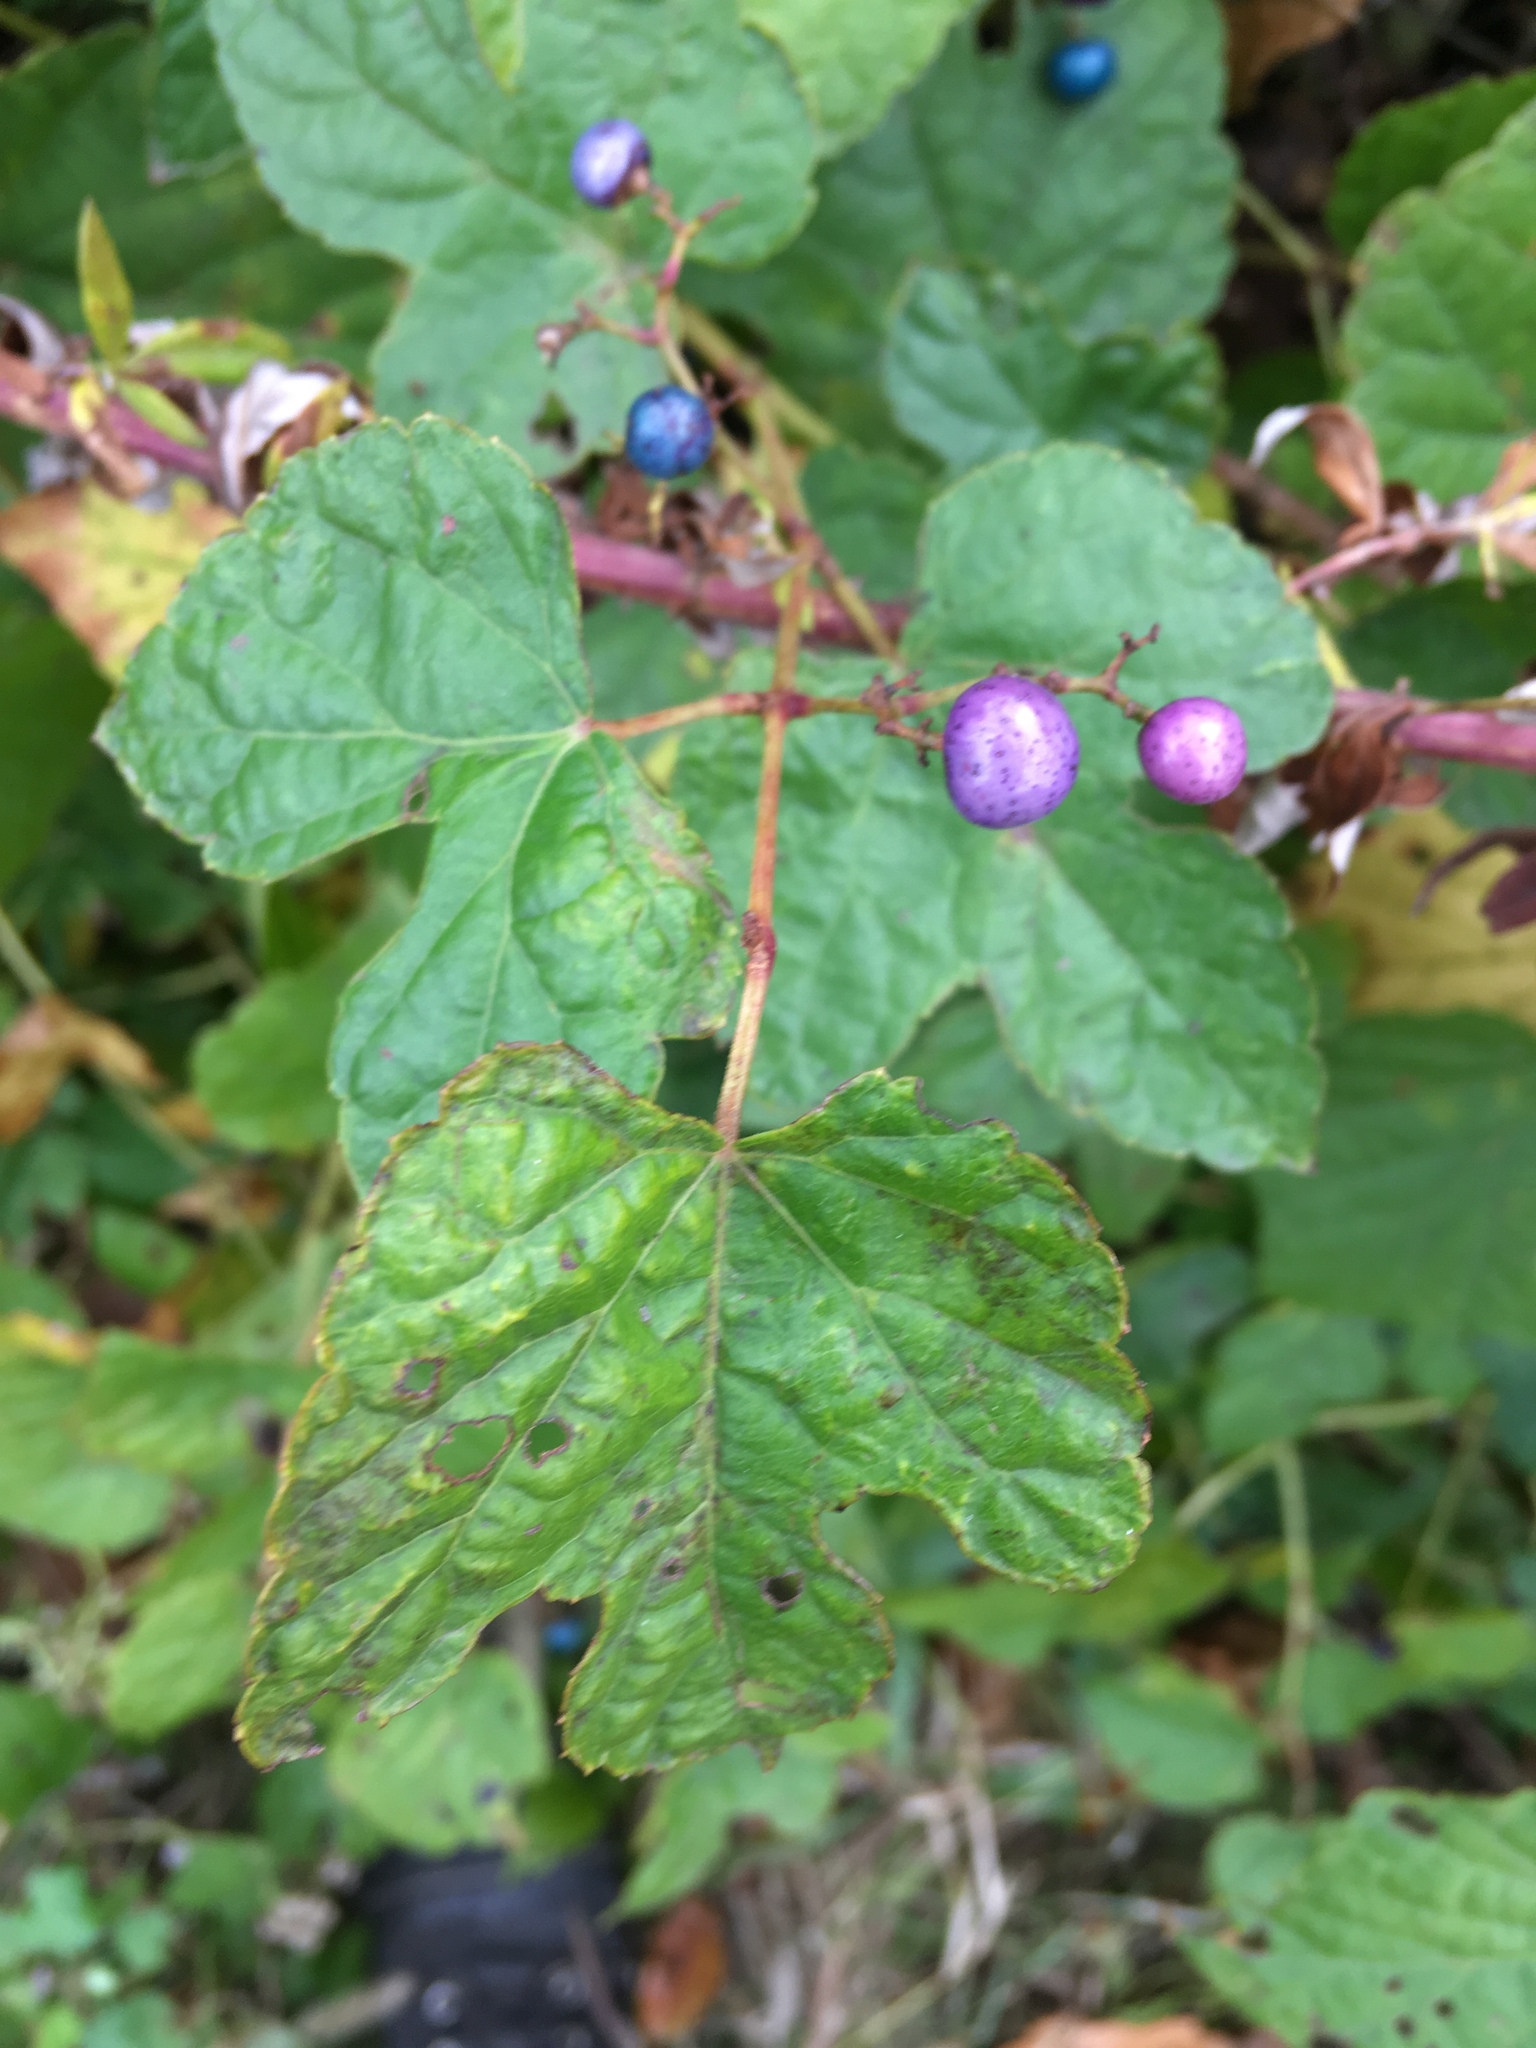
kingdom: Plantae
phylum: Tracheophyta
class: Magnoliopsida
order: Vitales
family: Vitaceae
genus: Ampelopsis
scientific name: Ampelopsis glandulosa
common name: Amur peppervine
